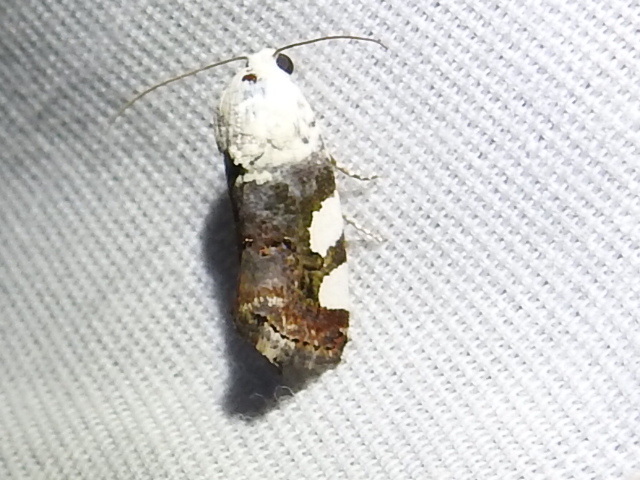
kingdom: Animalia
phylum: Arthropoda
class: Insecta
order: Lepidoptera
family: Noctuidae
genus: Acontia
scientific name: Acontia quadriplaga
